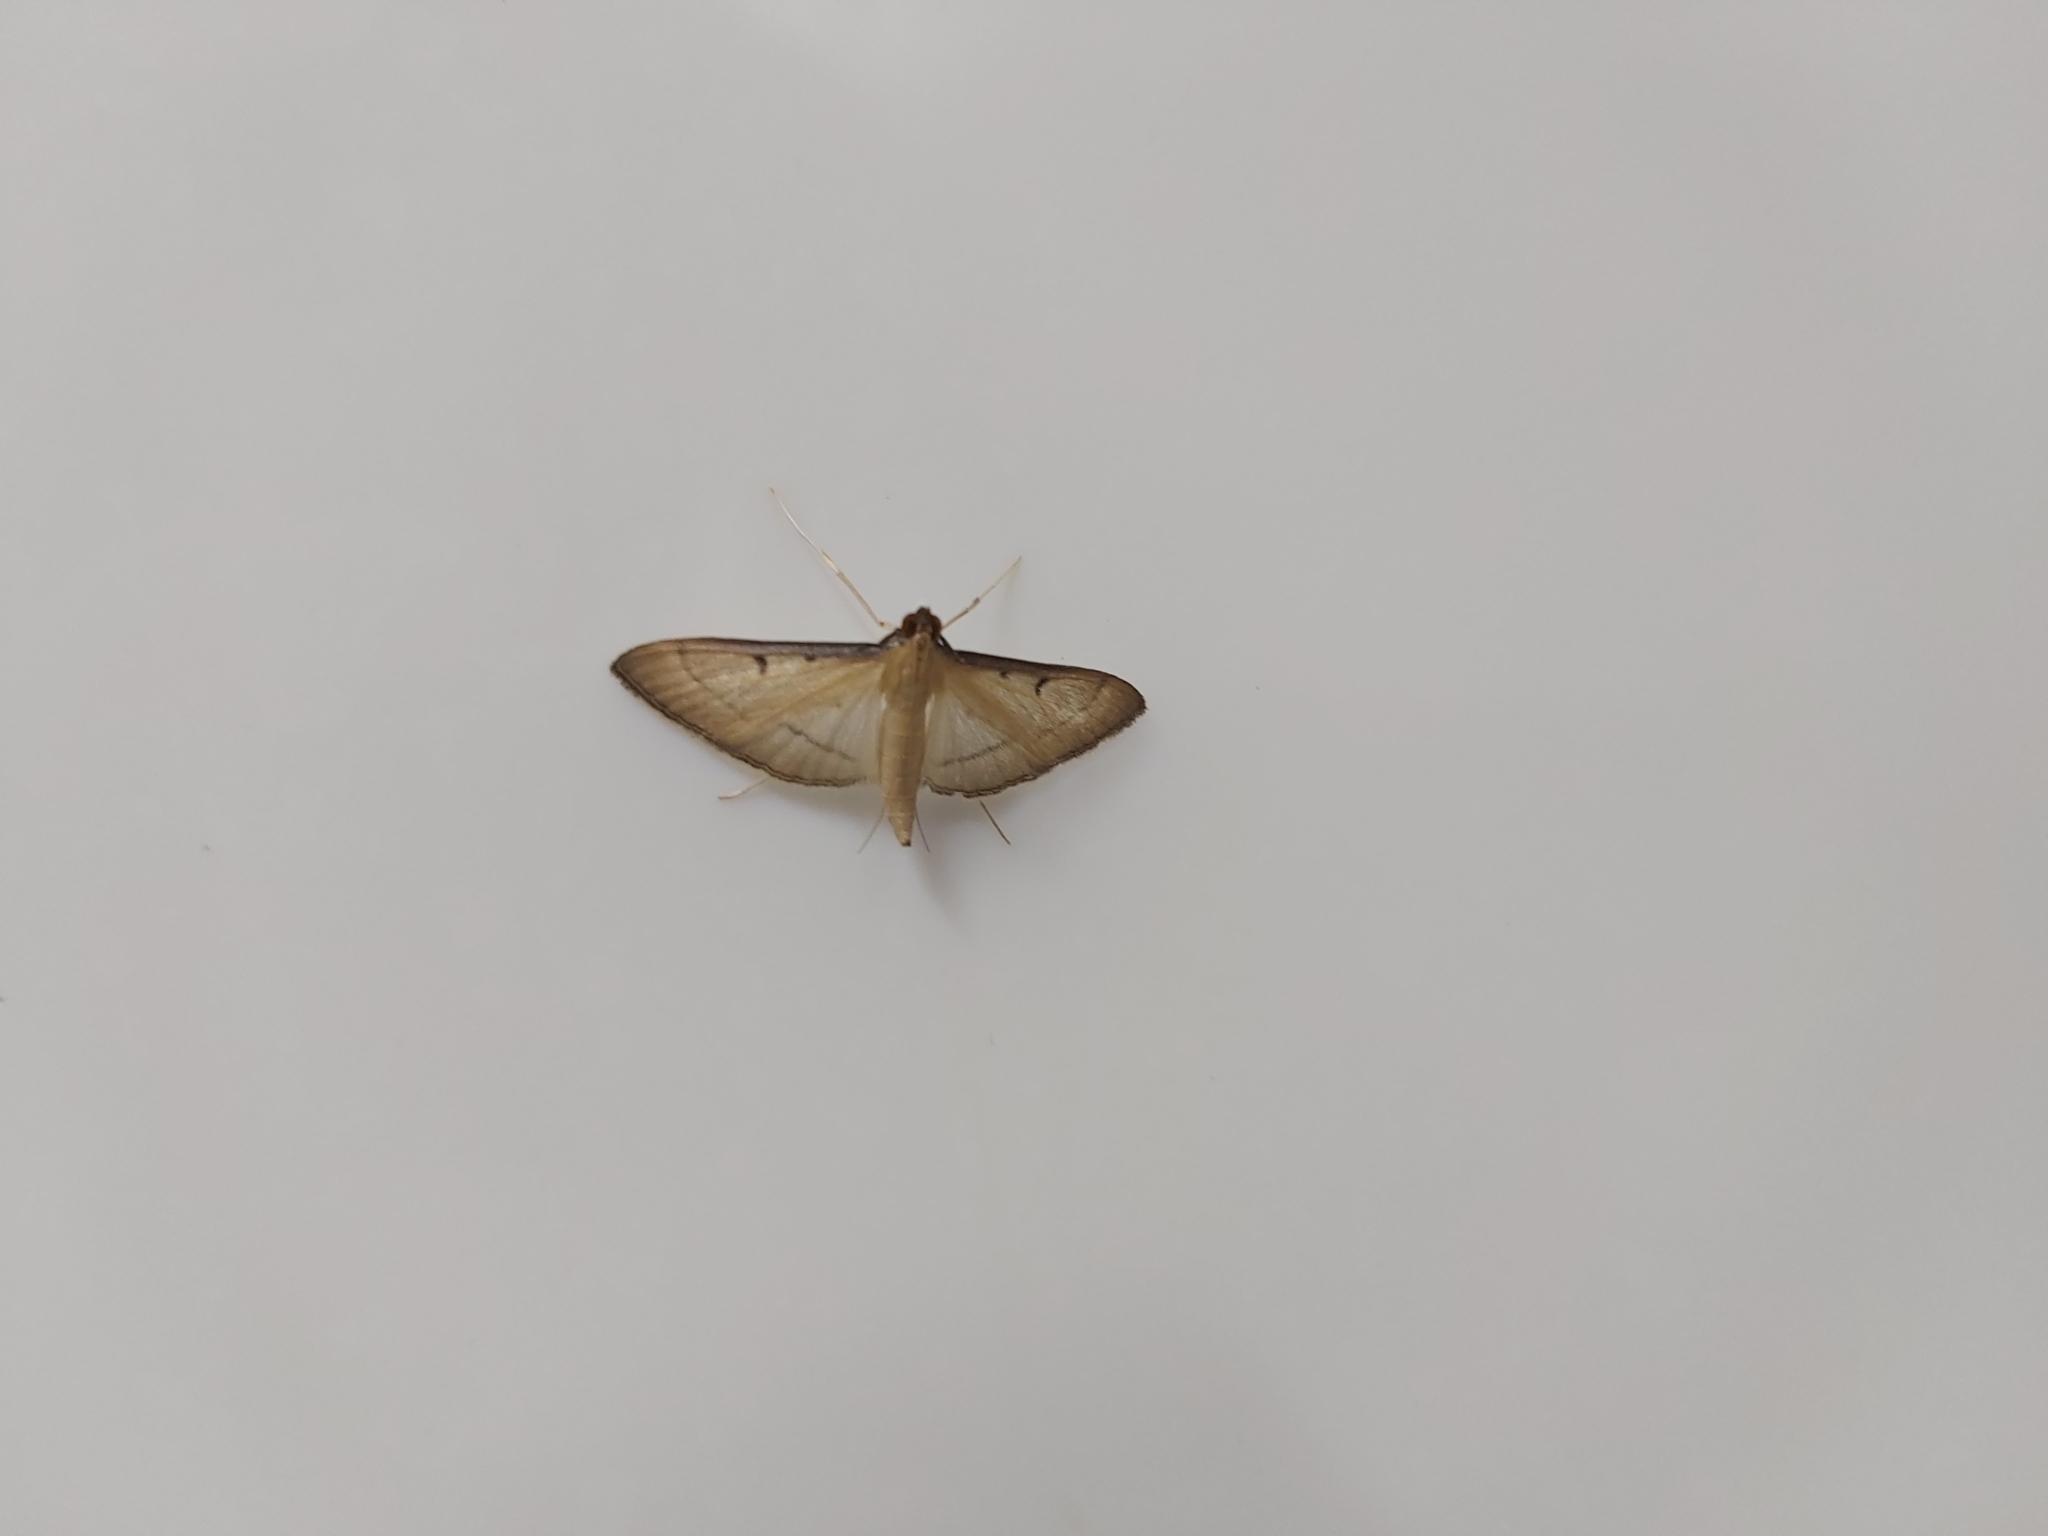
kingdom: Animalia
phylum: Arthropoda
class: Insecta
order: Lepidoptera
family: Crambidae
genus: Bradina
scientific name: Bradina admixtalis
